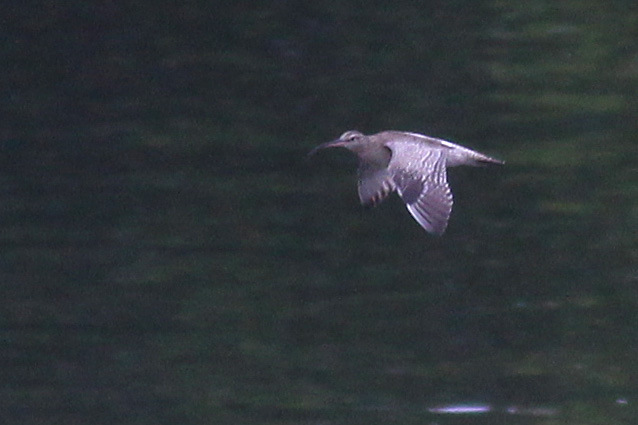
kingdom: Animalia
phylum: Chordata
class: Aves
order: Charadriiformes
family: Scolopacidae
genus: Numenius
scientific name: Numenius phaeopus
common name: Whimbrel
